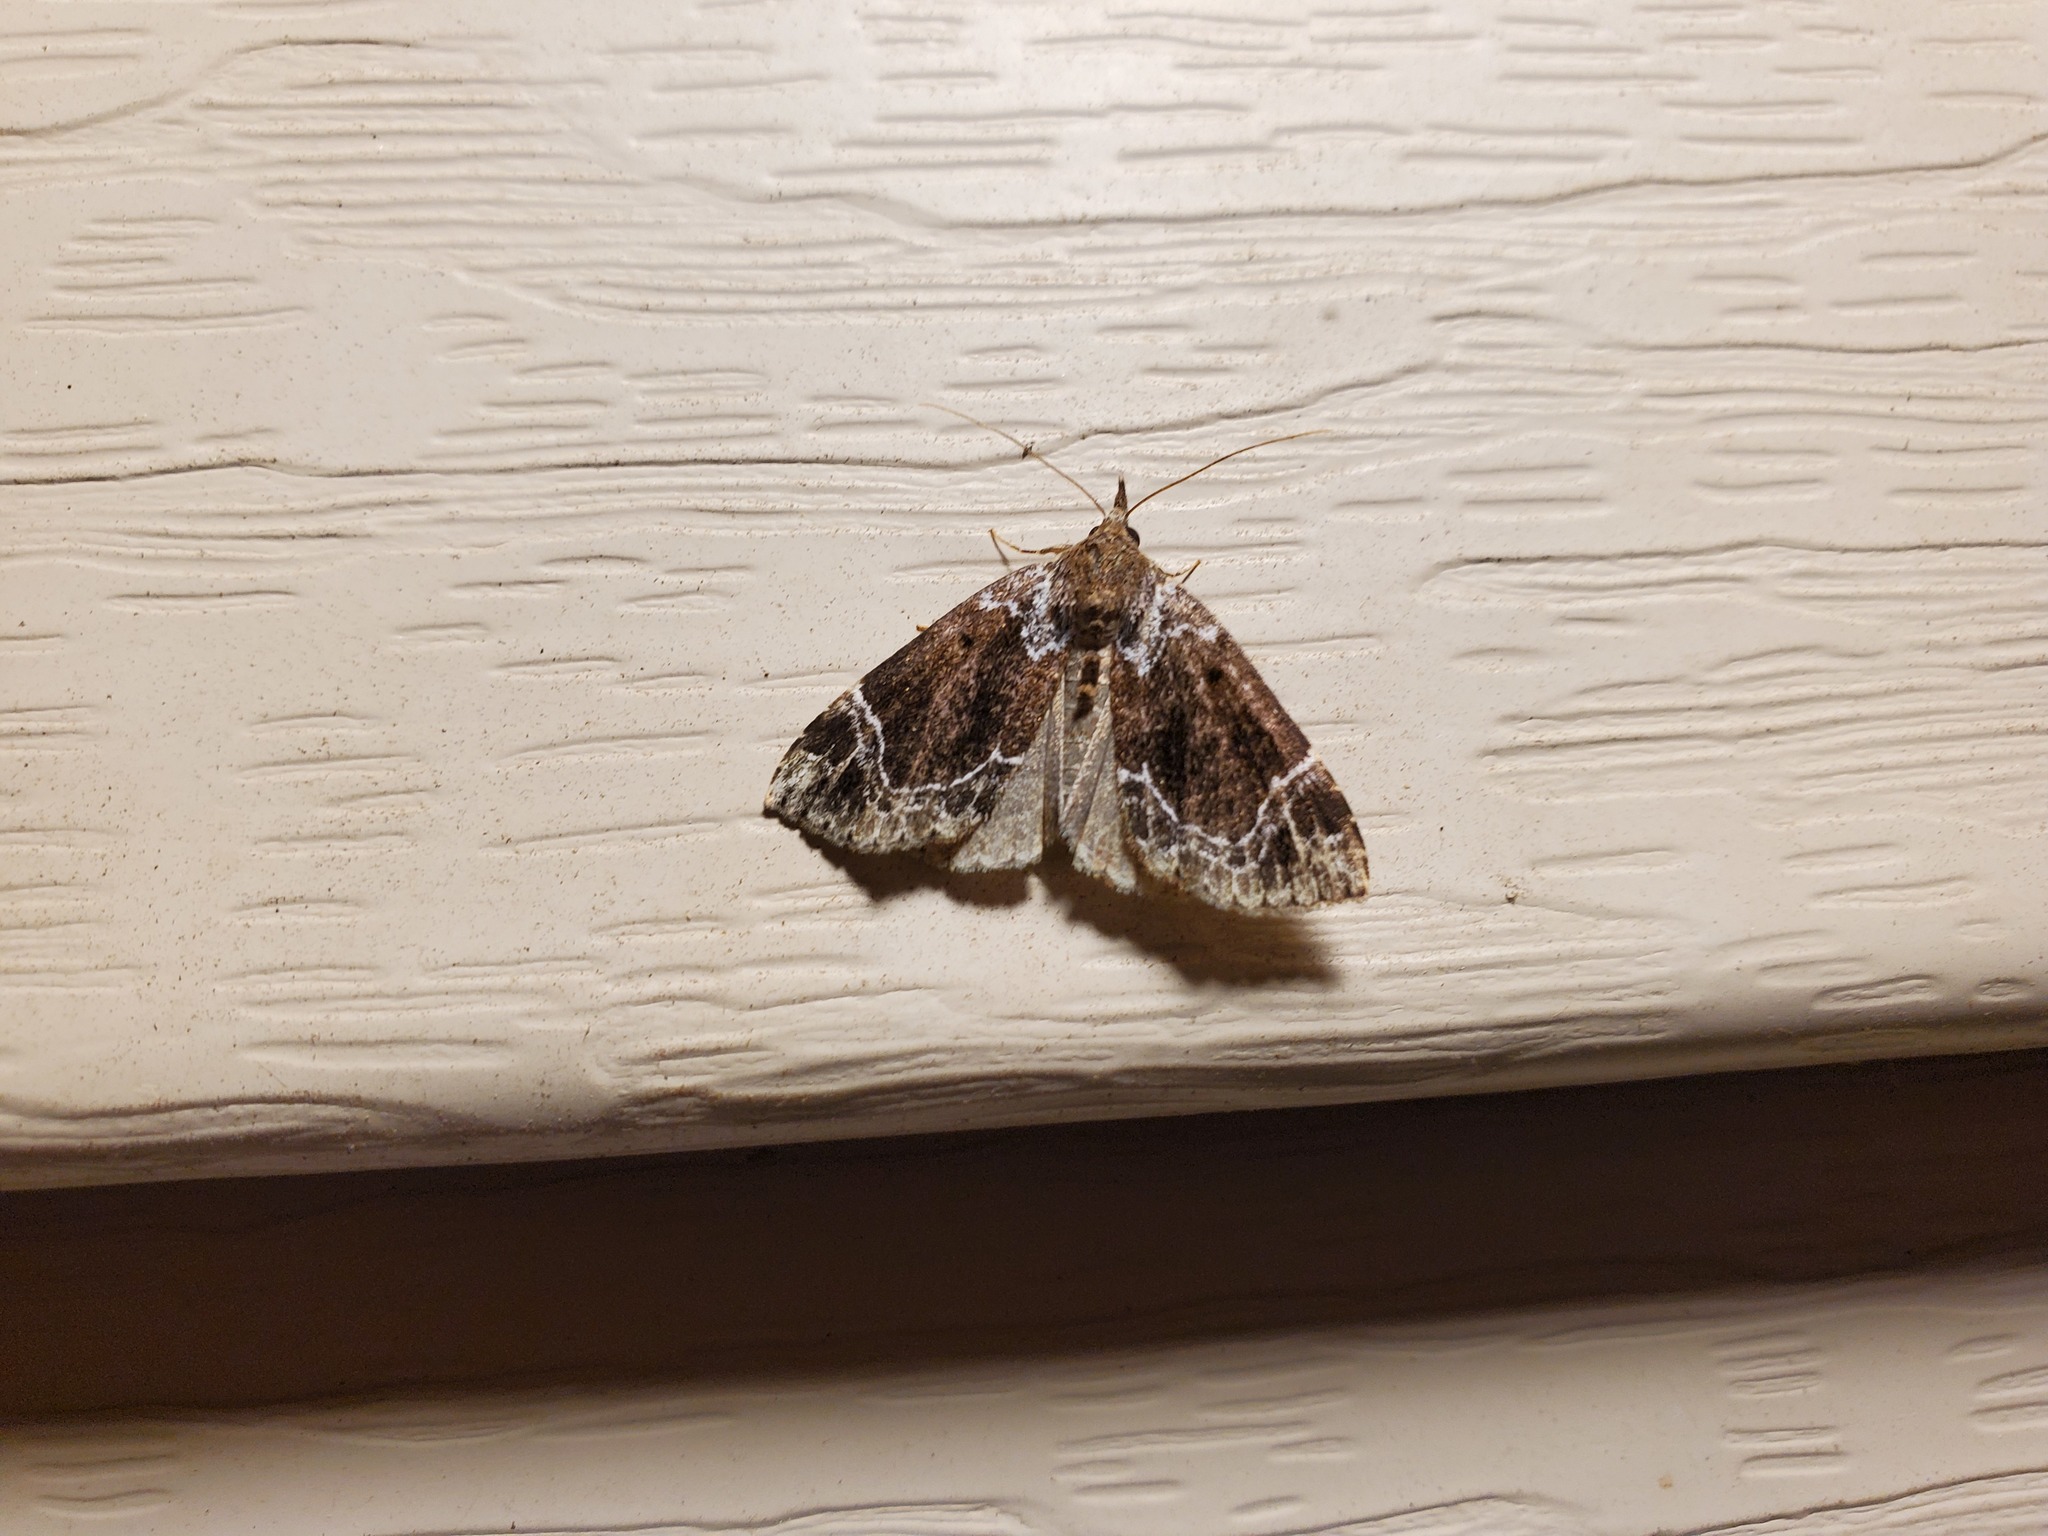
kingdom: Animalia
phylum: Arthropoda
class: Insecta
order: Lepidoptera
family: Erebidae
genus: Hypena
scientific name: Hypena abalienalis
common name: White-lined snout
